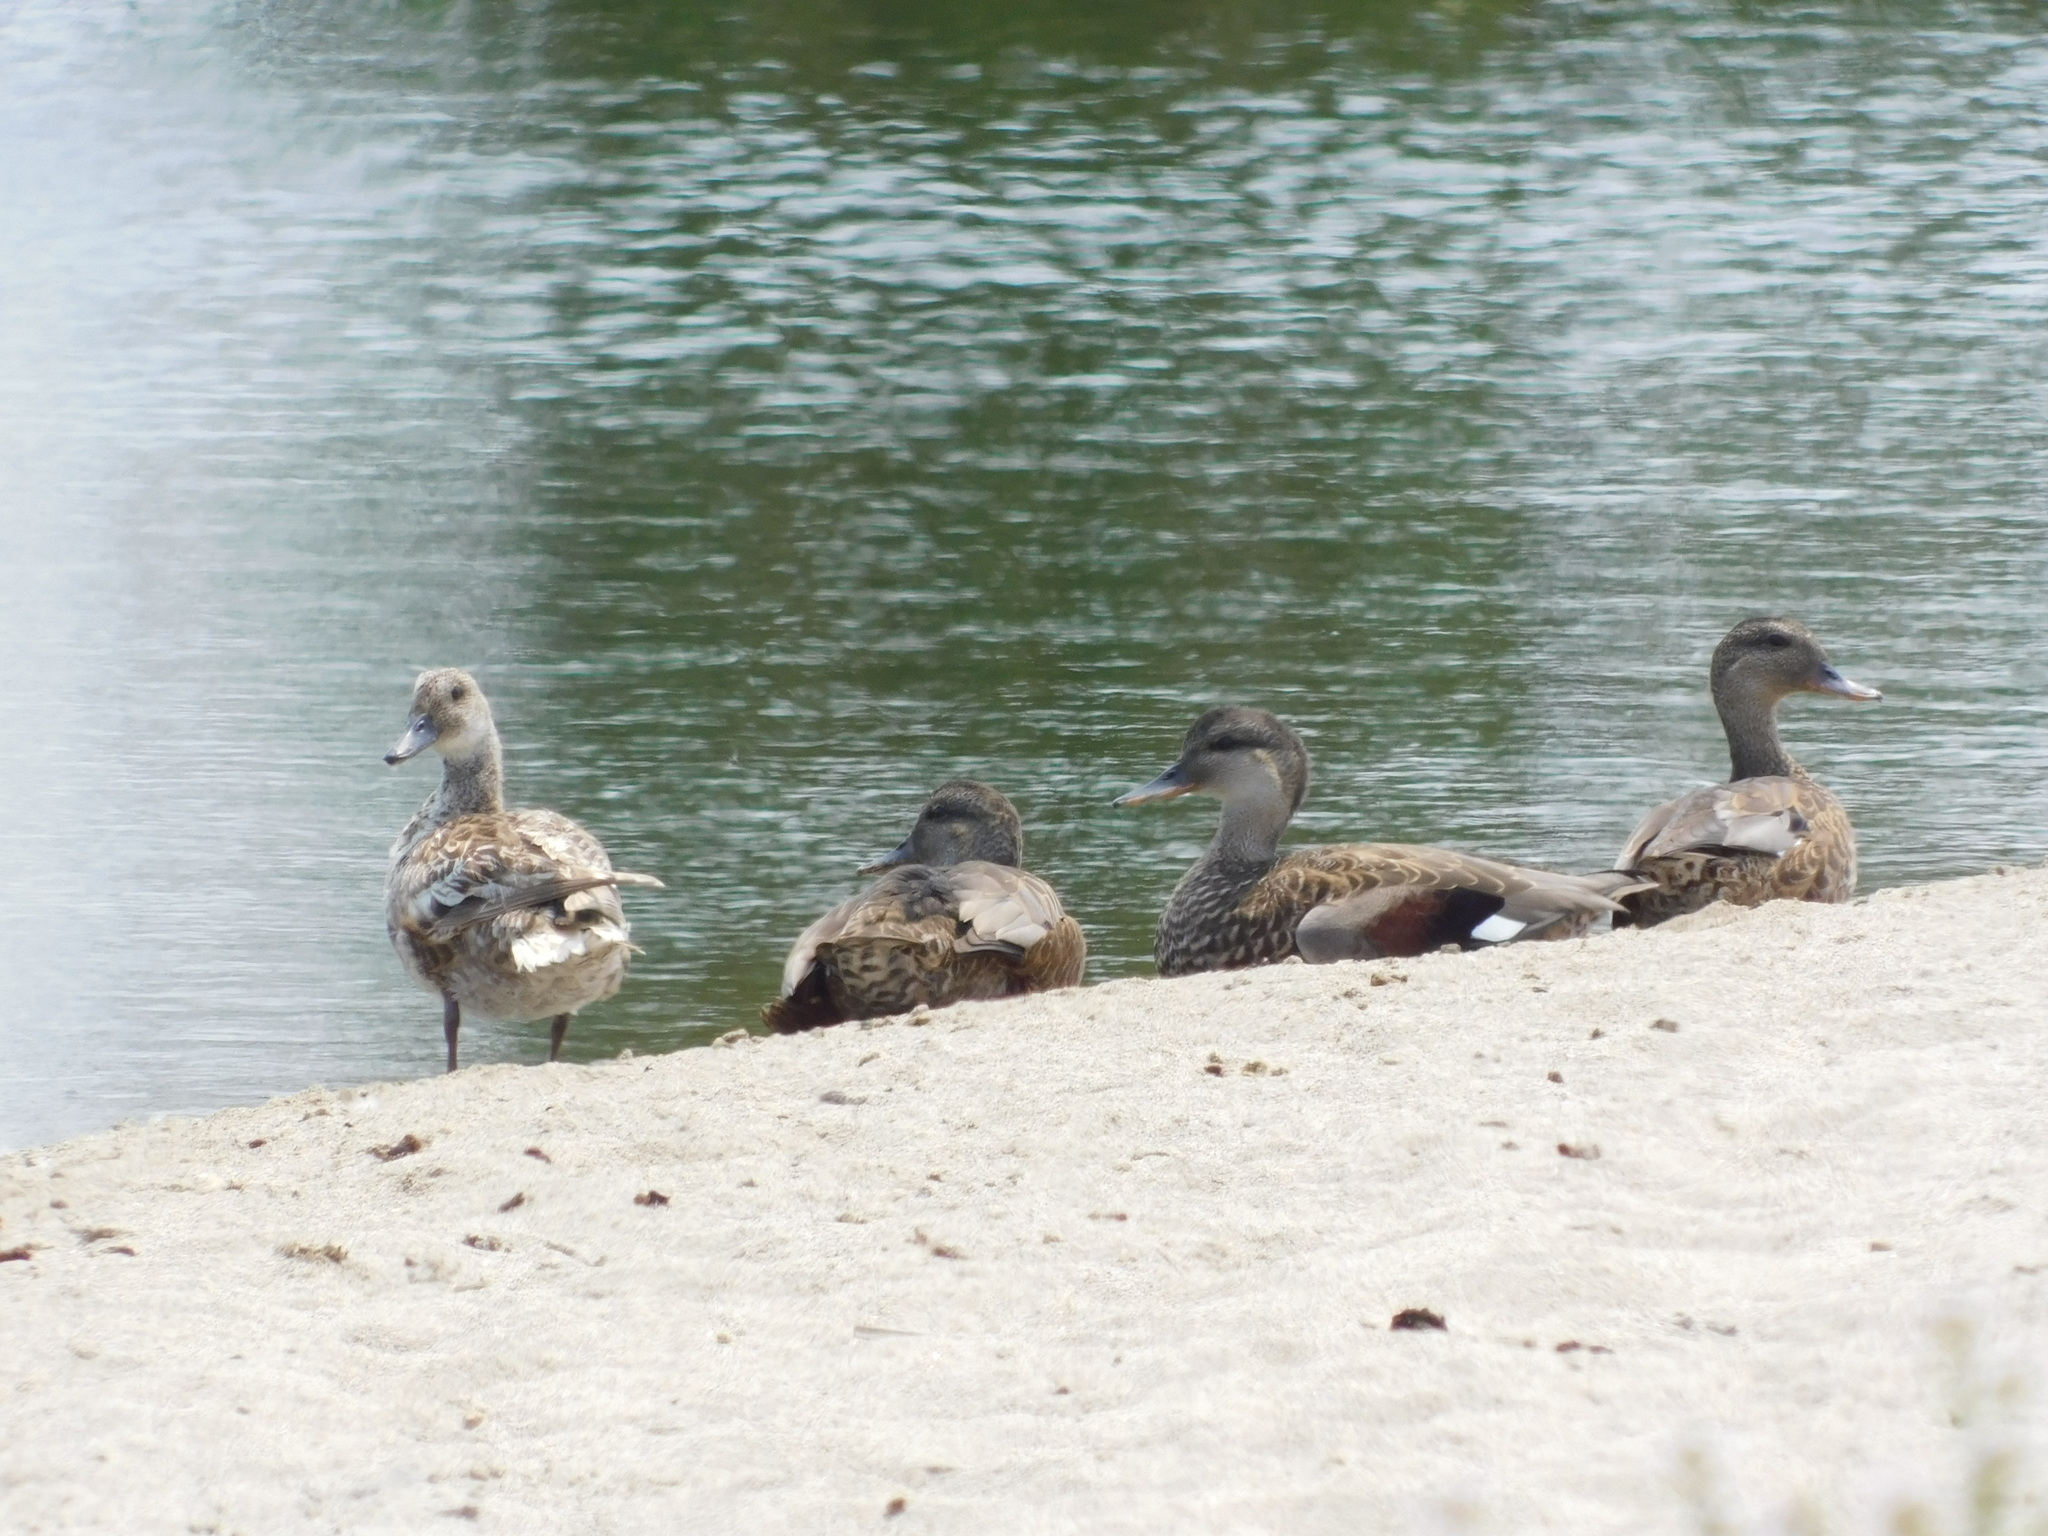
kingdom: Animalia
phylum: Chordata
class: Aves
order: Anseriformes
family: Anatidae
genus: Mareca
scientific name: Mareca strepera
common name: Gadwall
